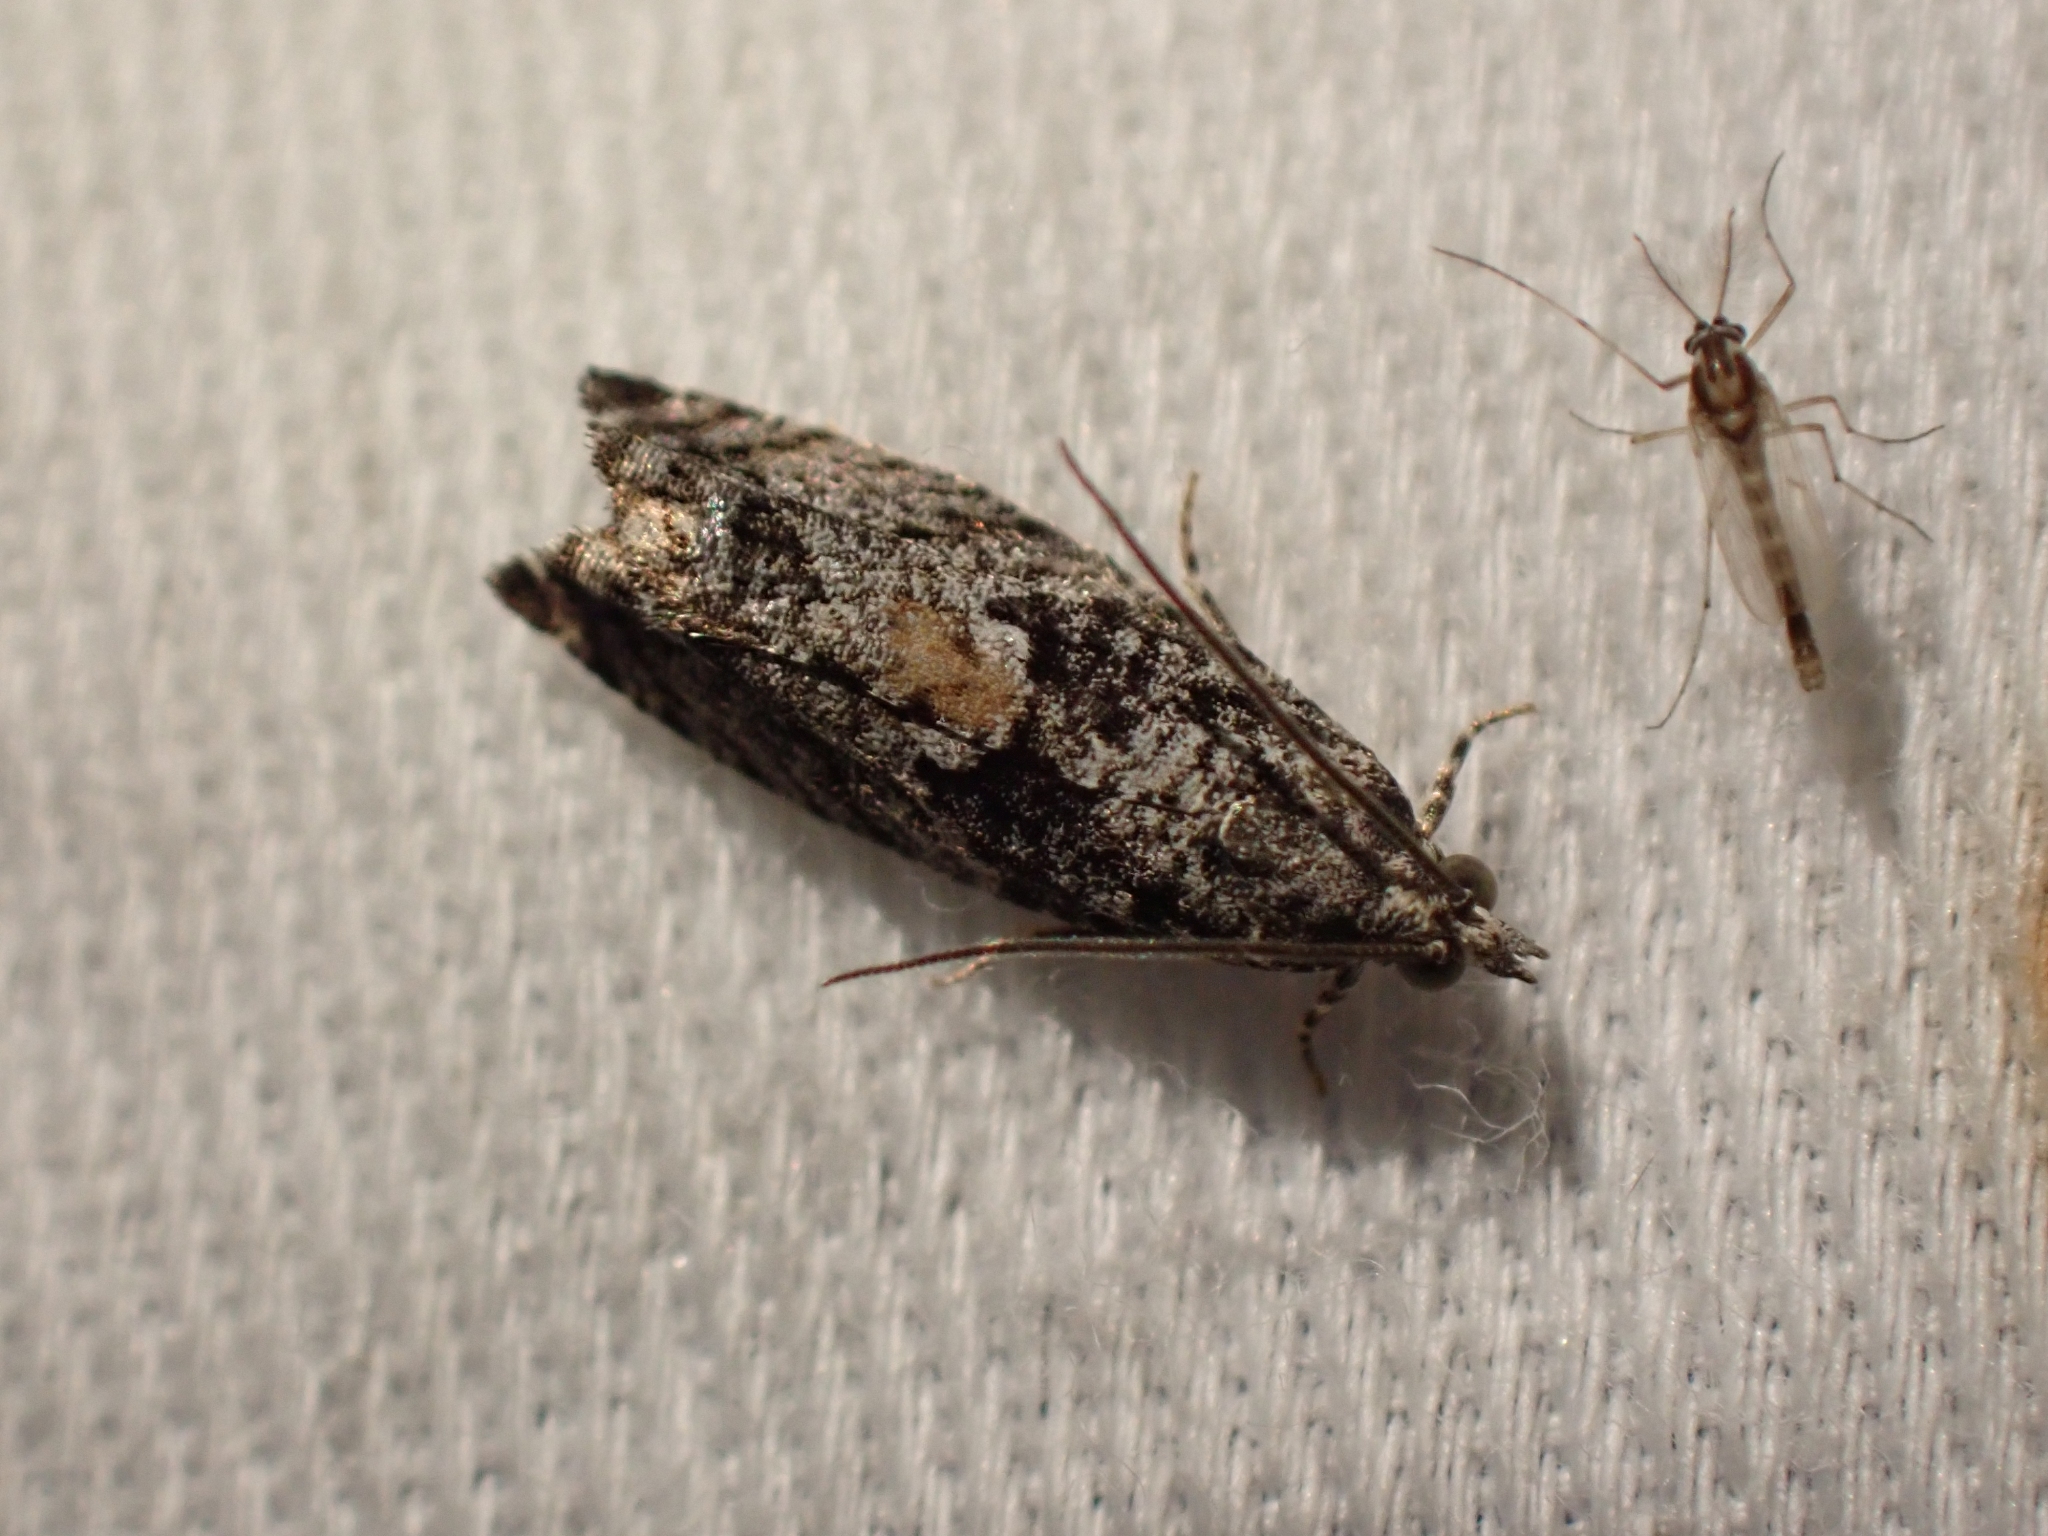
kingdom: Animalia
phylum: Arthropoda
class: Insecta
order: Lepidoptera
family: Tortricidae
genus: Epinotia
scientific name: Epinotia nisella
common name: Grey poplar bell
